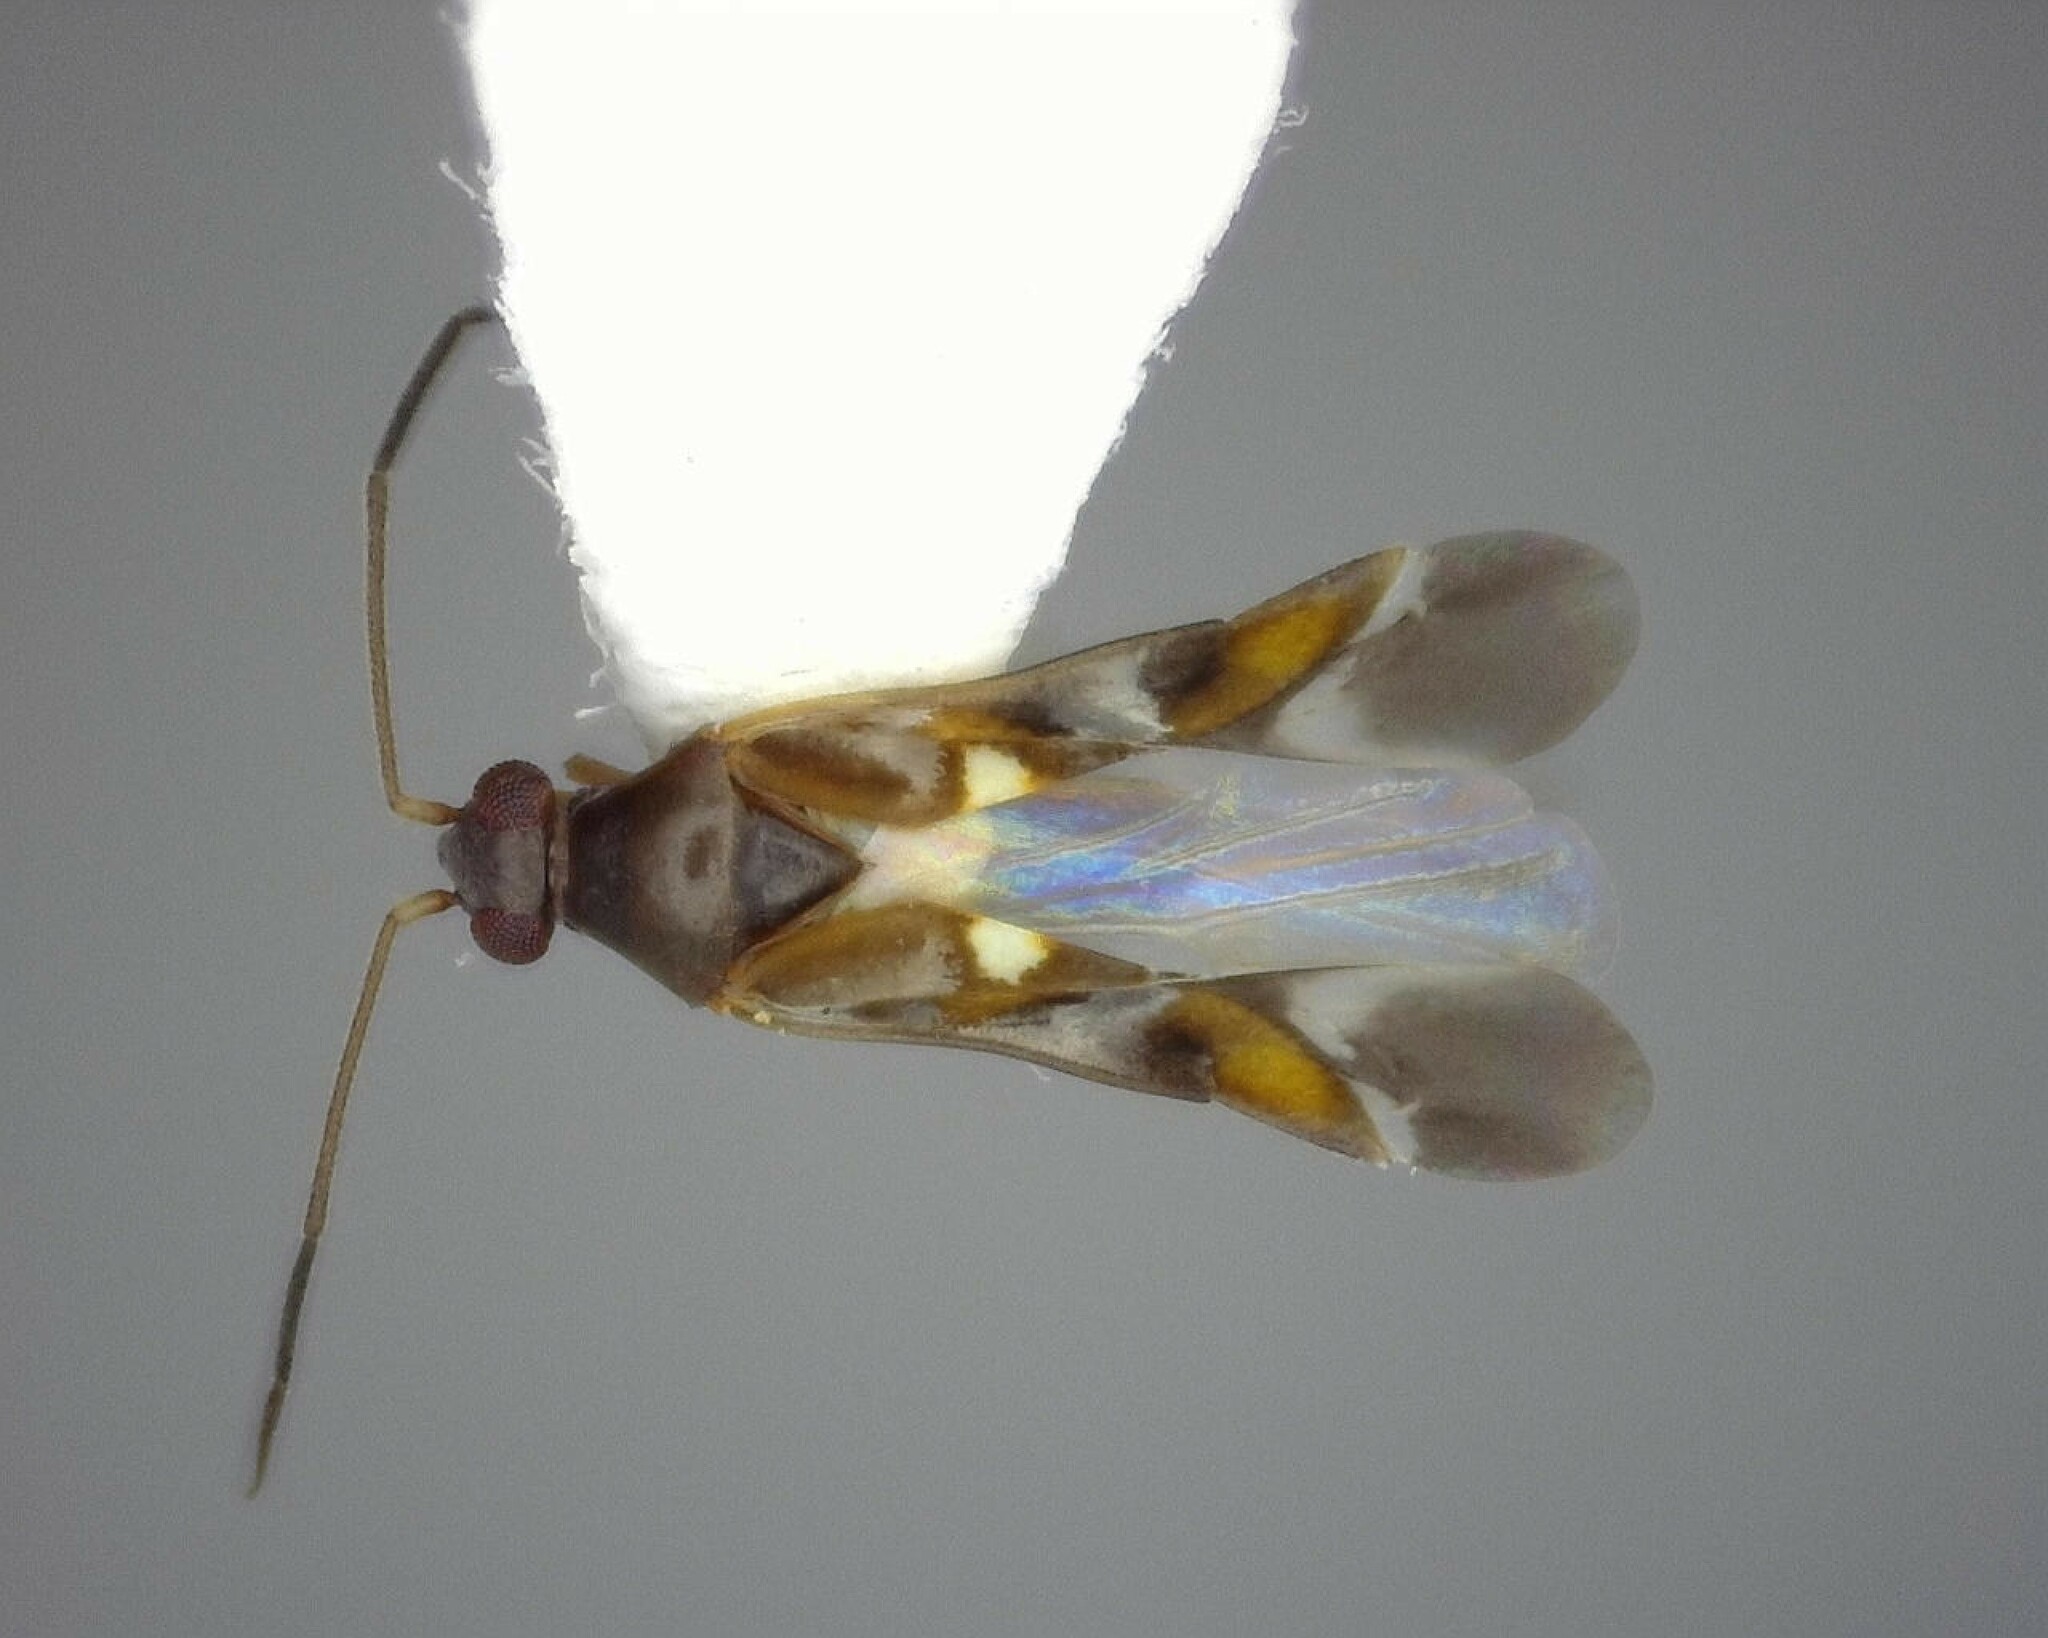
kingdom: Animalia
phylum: Arthropoda
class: Insecta
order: Hemiptera
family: Miridae
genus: Sericophanes
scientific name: Sericophanes heidemanni
